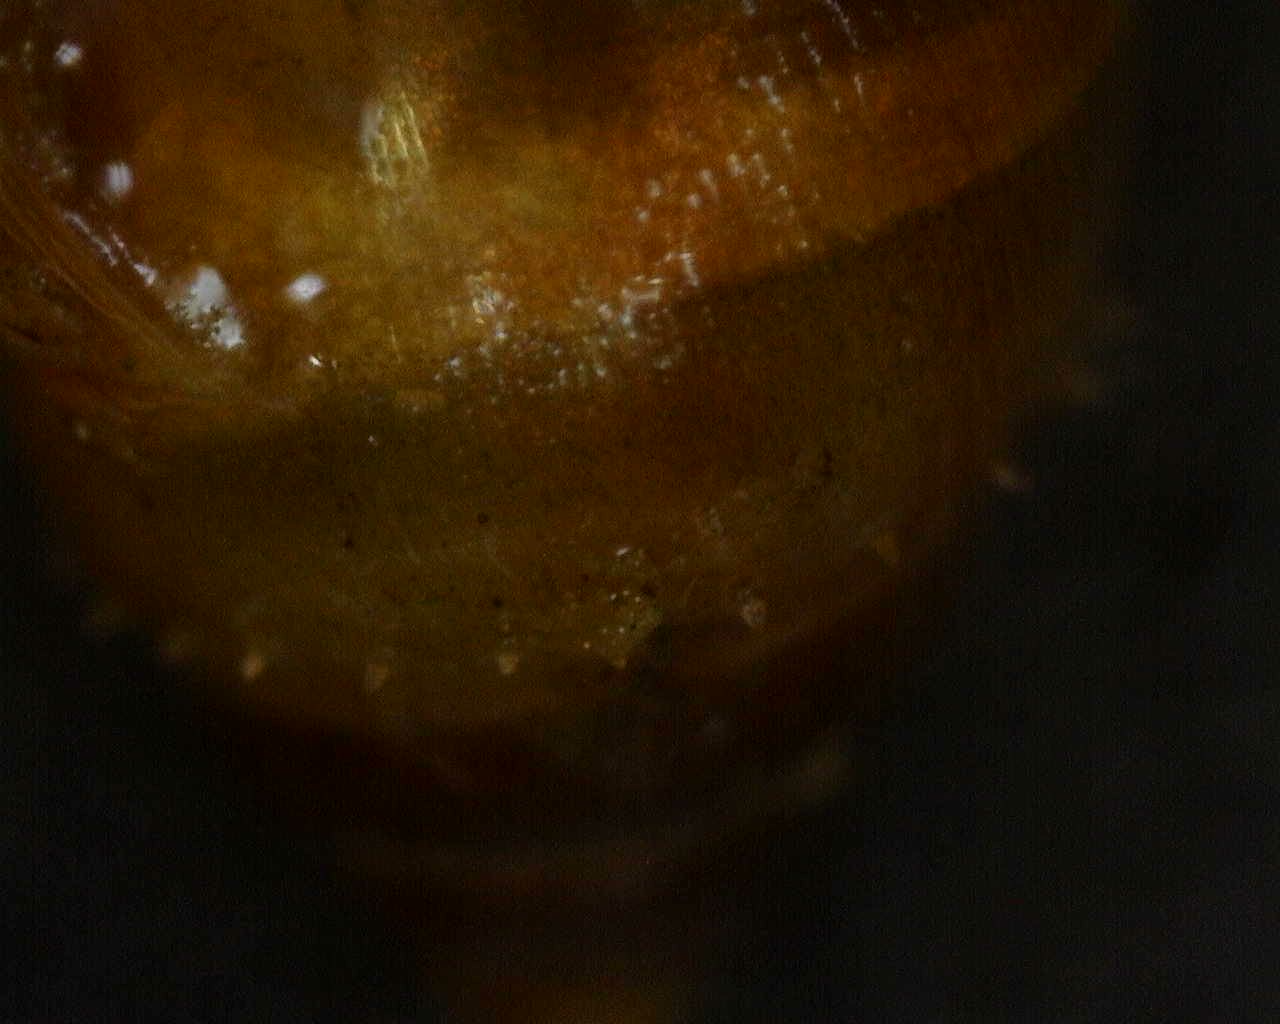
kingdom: Animalia
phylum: Mollusca
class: Gastropoda
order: Ellobiida
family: Ellobiidae
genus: Myosotella
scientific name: Myosotella myosotis
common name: Mouse-eared snail
